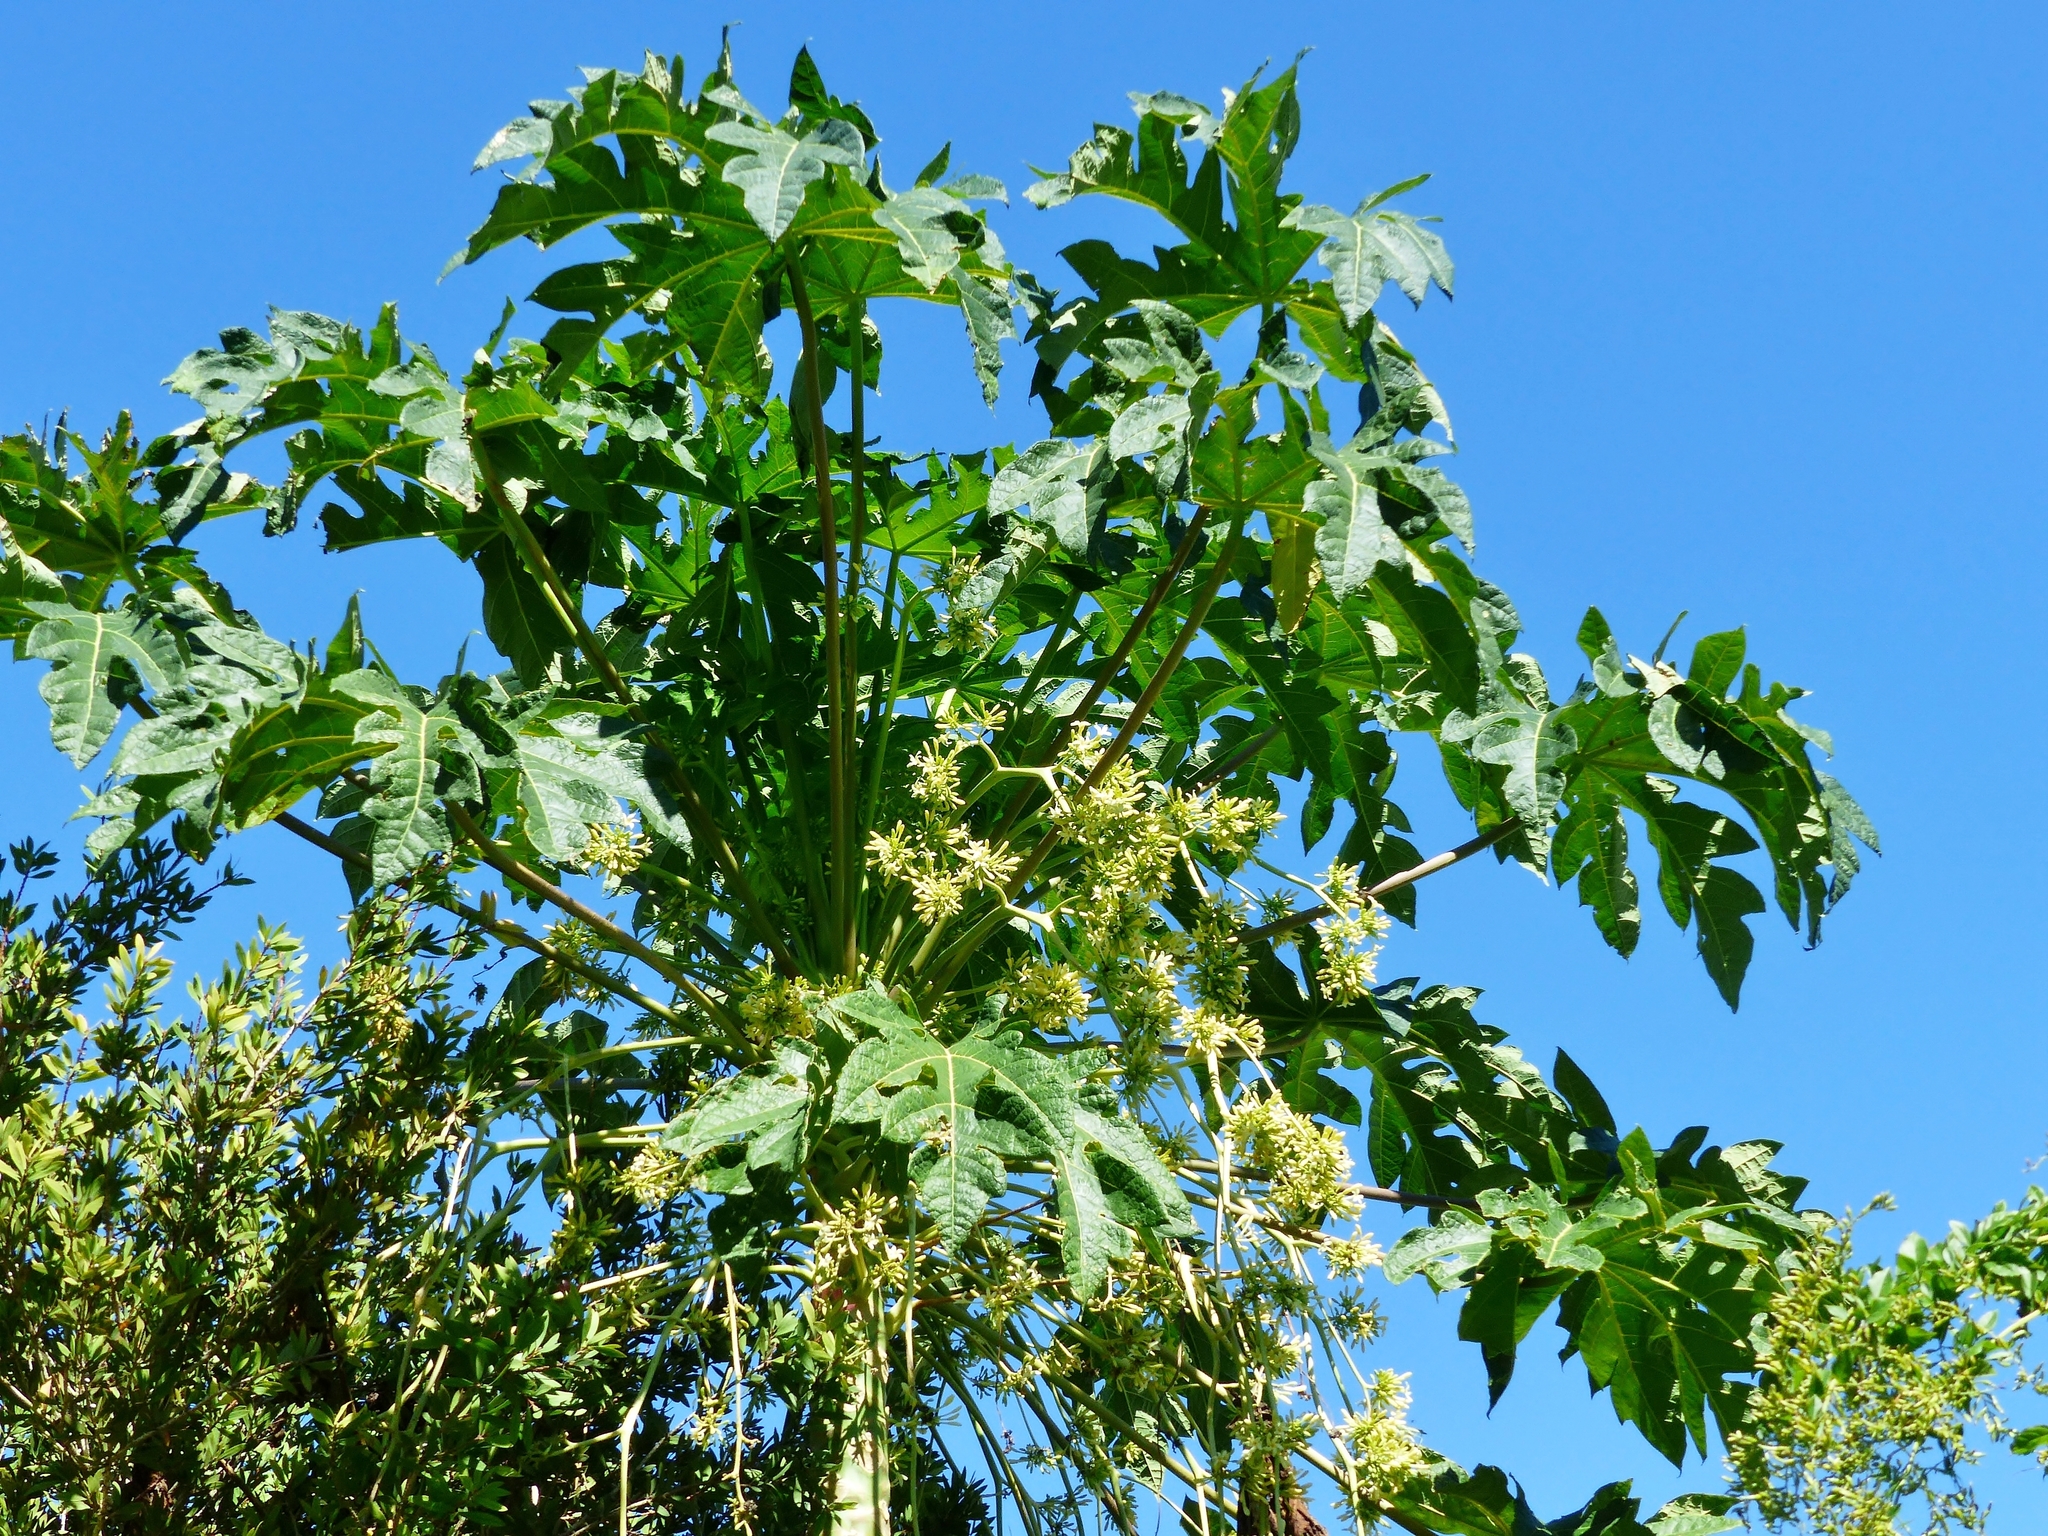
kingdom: Plantae
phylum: Tracheophyta
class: Magnoliopsida
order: Brassicales
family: Caricaceae
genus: Carica
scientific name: Carica papaya
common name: Papaya
